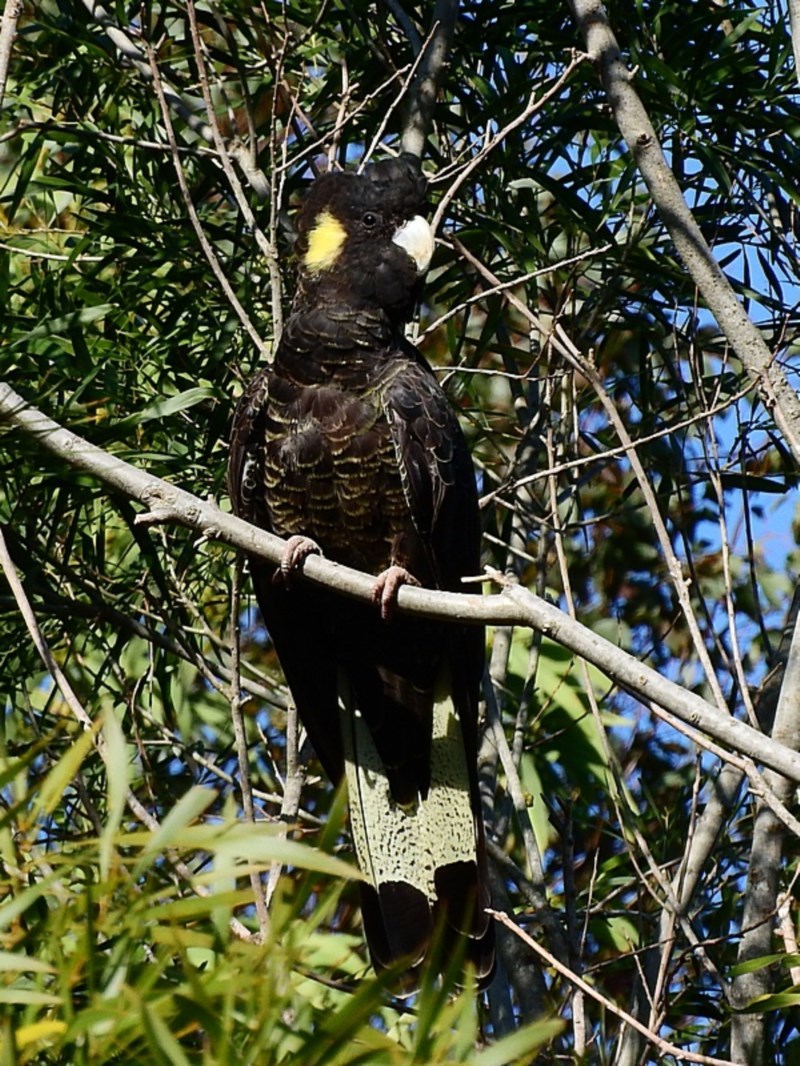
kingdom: Animalia
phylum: Chordata
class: Aves
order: Psittaciformes
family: Cacatuidae
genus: Zanda
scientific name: Zanda funerea
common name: Yellow-tailed black-cockatoo
